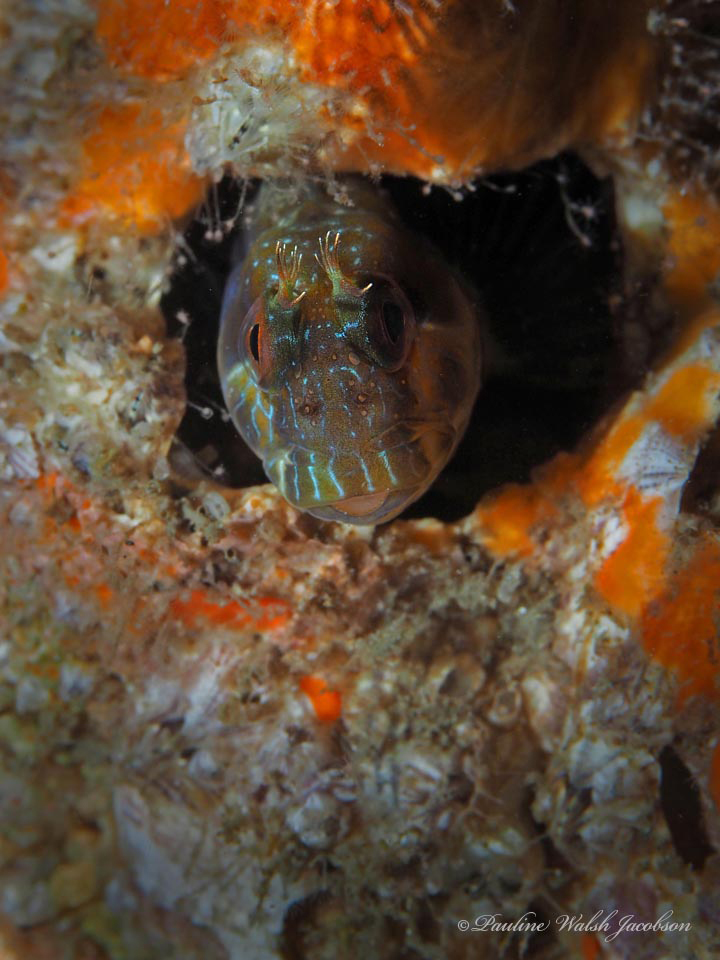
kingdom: Animalia
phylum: Chordata
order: Perciformes
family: Blenniidae
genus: Parablennius
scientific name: Parablennius marmoreus
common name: Seaweed blenny
